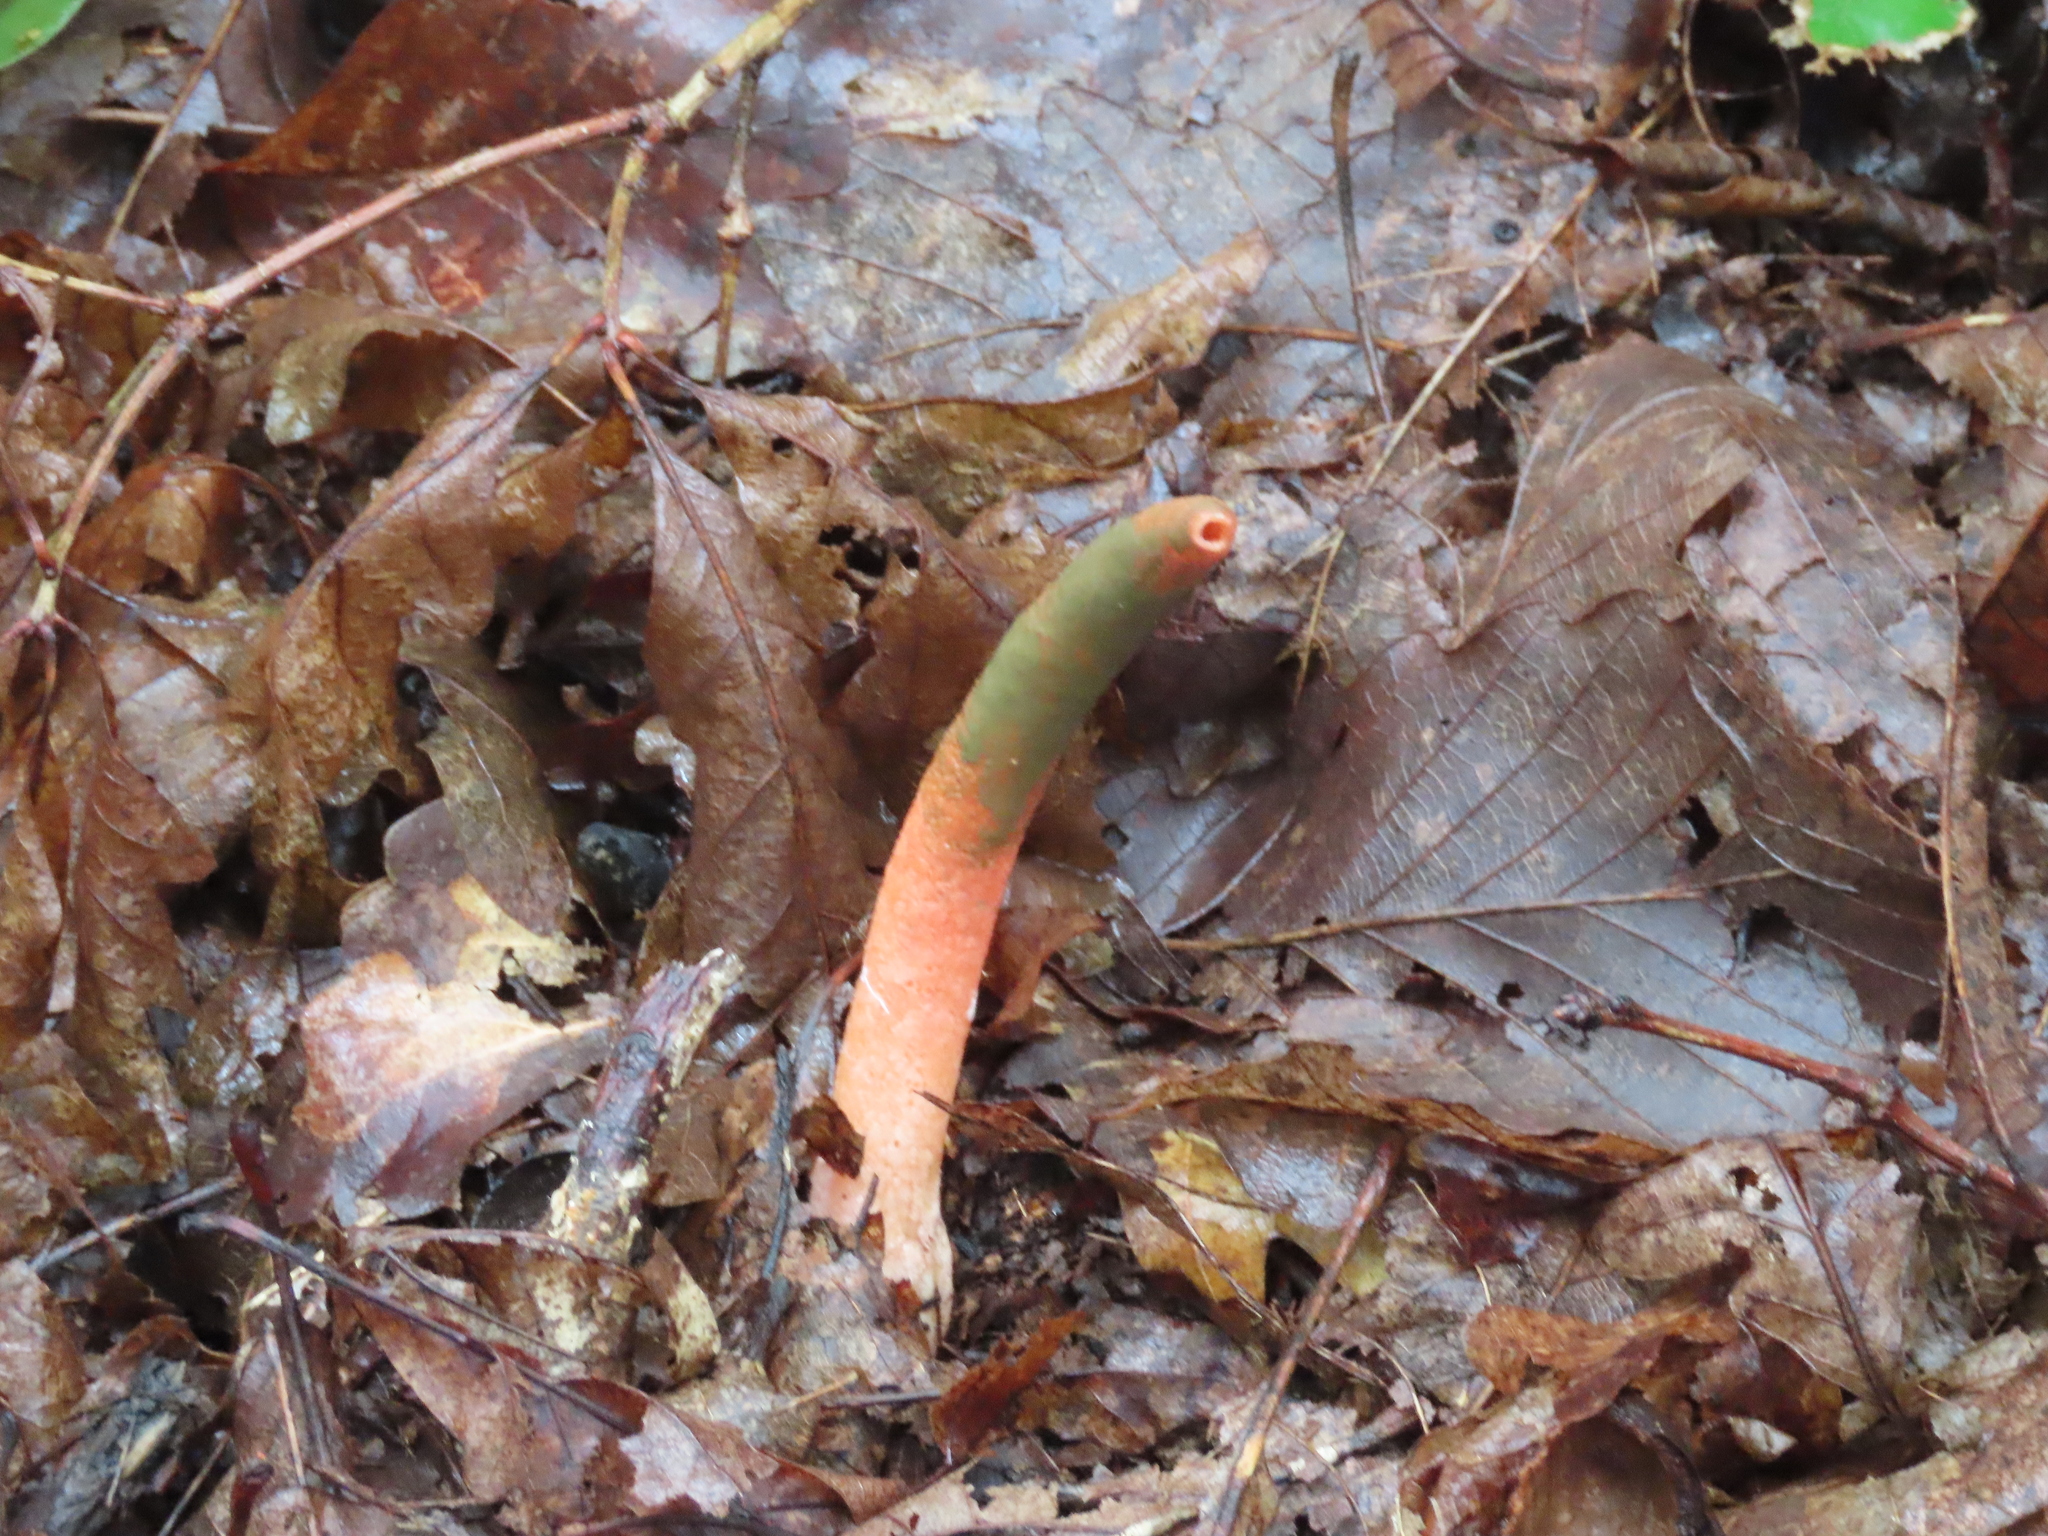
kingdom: Fungi
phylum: Basidiomycota
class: Agaricomycetes
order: Phallales
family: Phallaceae
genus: Mutinus
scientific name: Mutinus elegans
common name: Devil's dipstick
